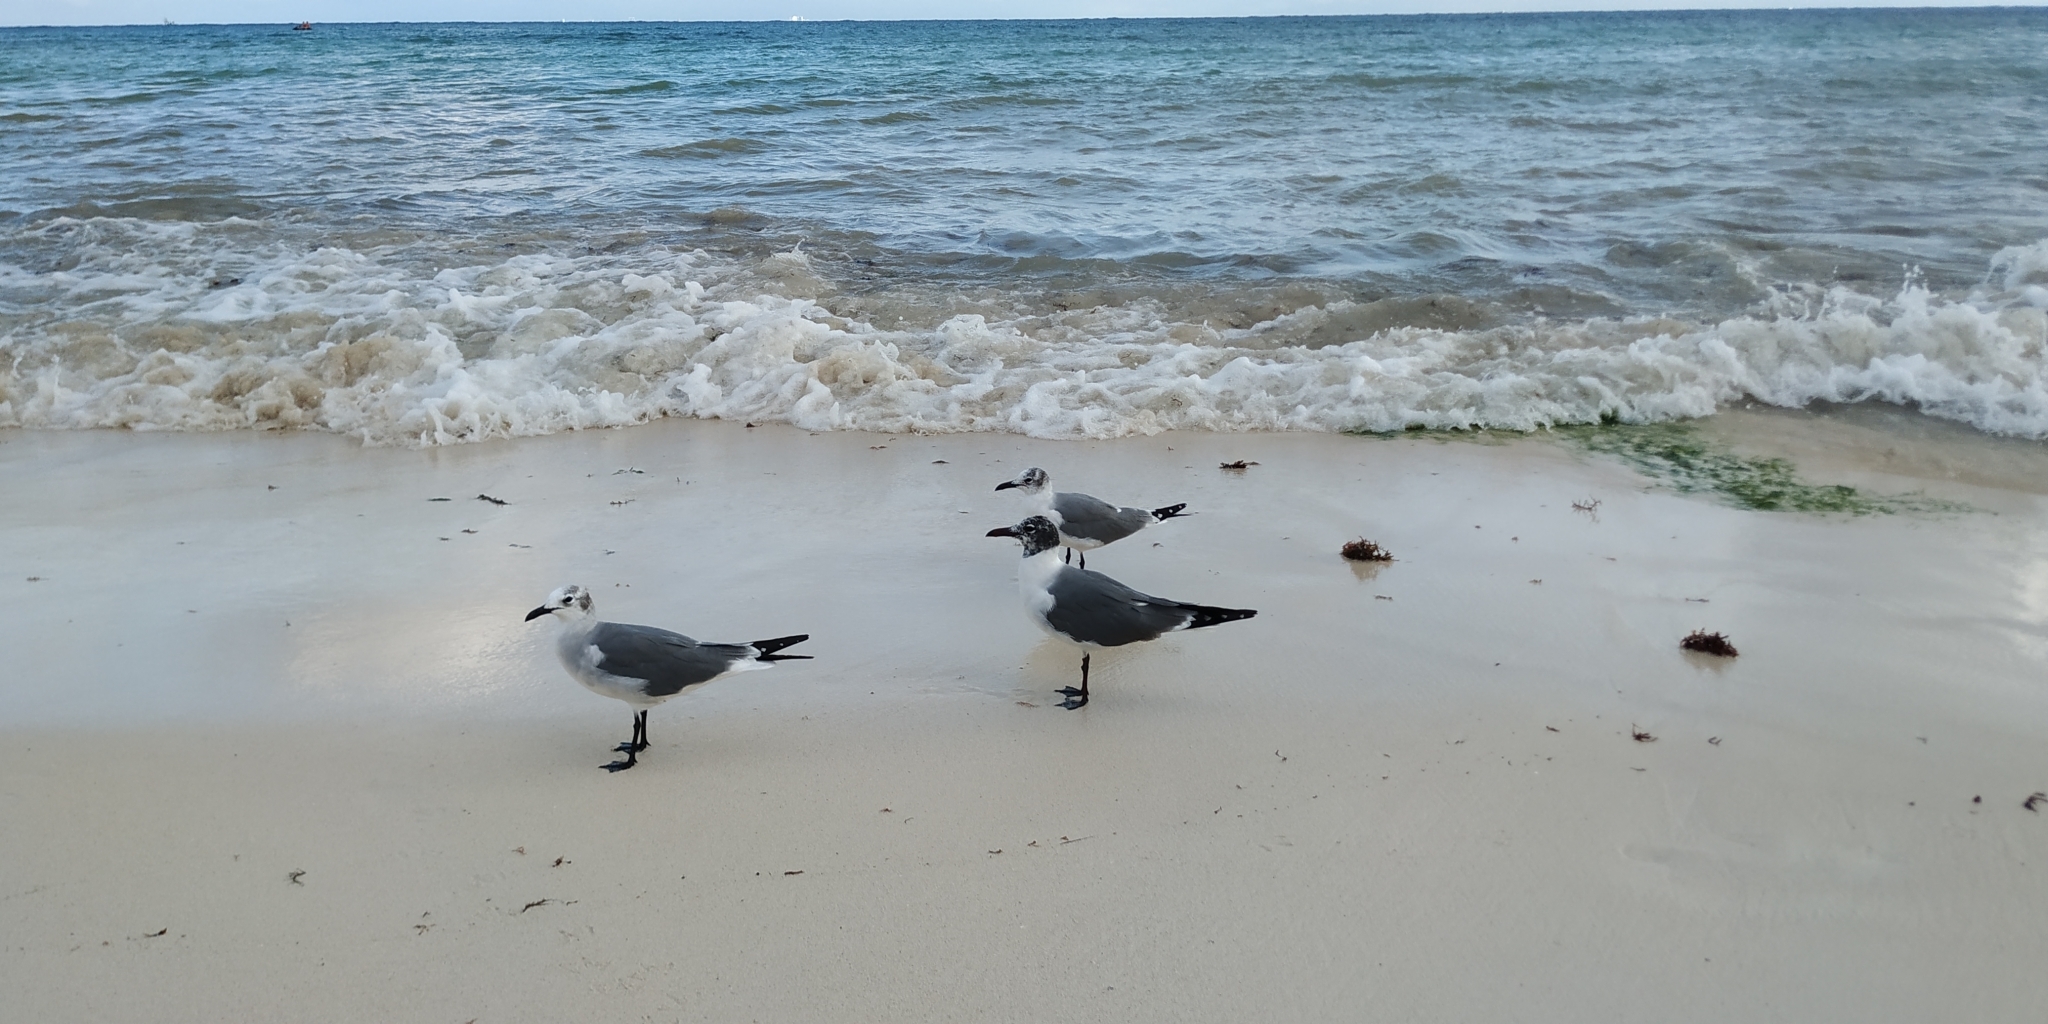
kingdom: Animalia
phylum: Chordata
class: Aves
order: Charadriiformes
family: Laridae
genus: Leucophaeus
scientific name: Leucophaeus atricilla
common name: Laughing gull
